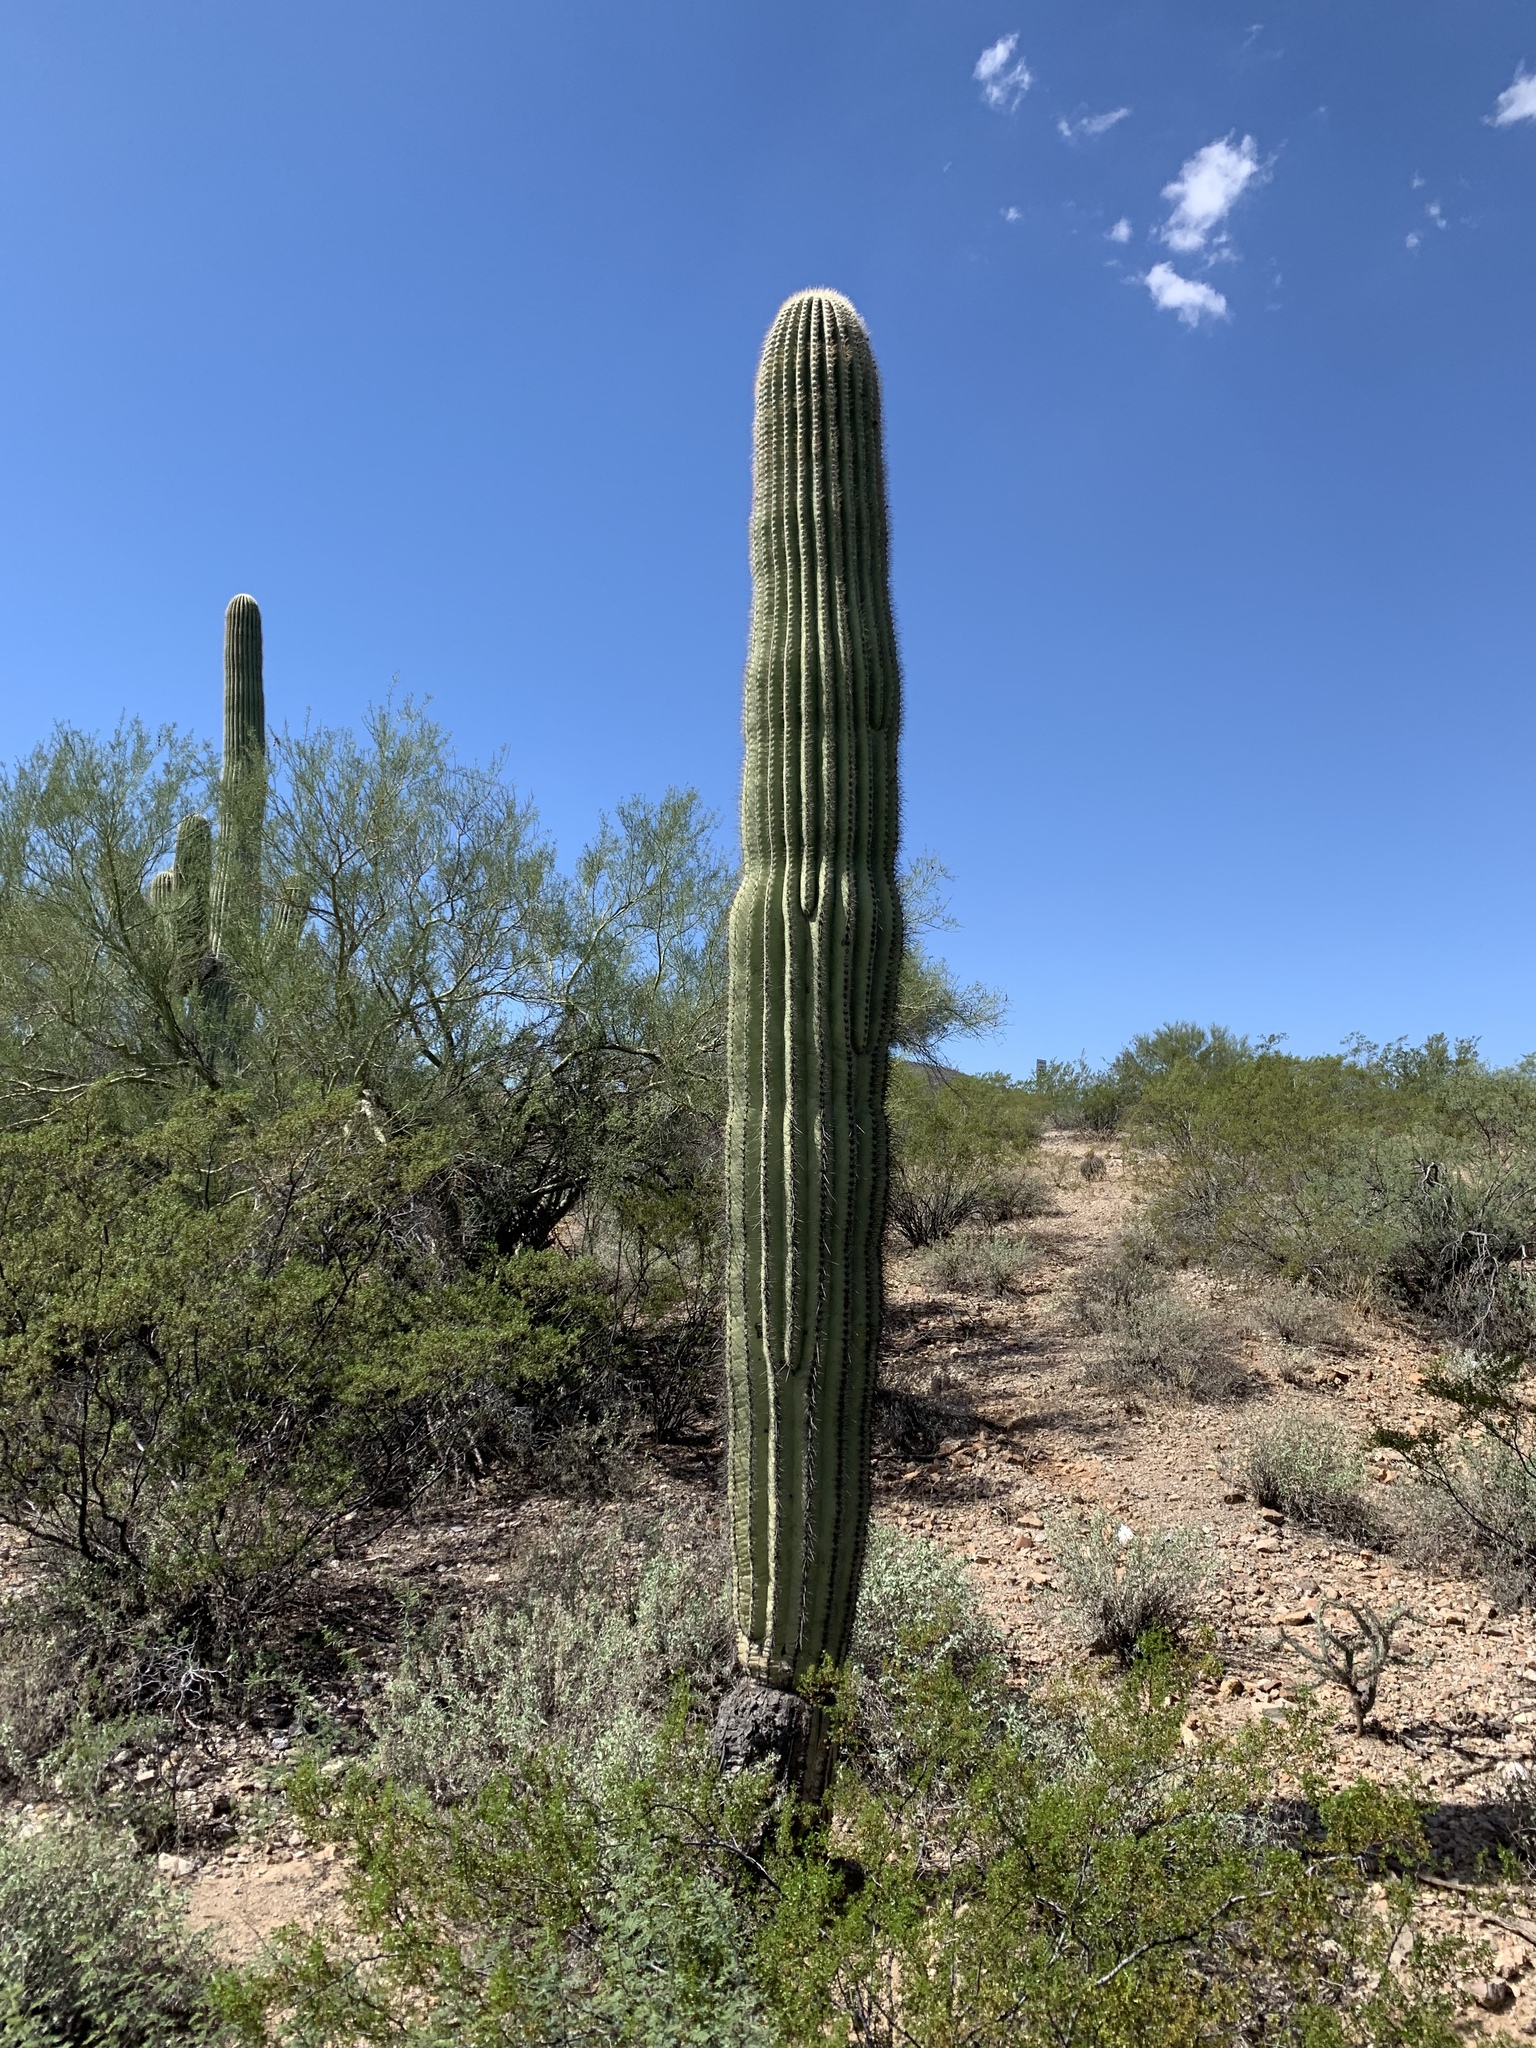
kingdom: Plantae
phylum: Tracheophyta
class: Magnoliopsida
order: Caryophyllales
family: Cactaceae
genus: Carnegiea
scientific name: Carnegiea gigantea
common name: Saguaro
